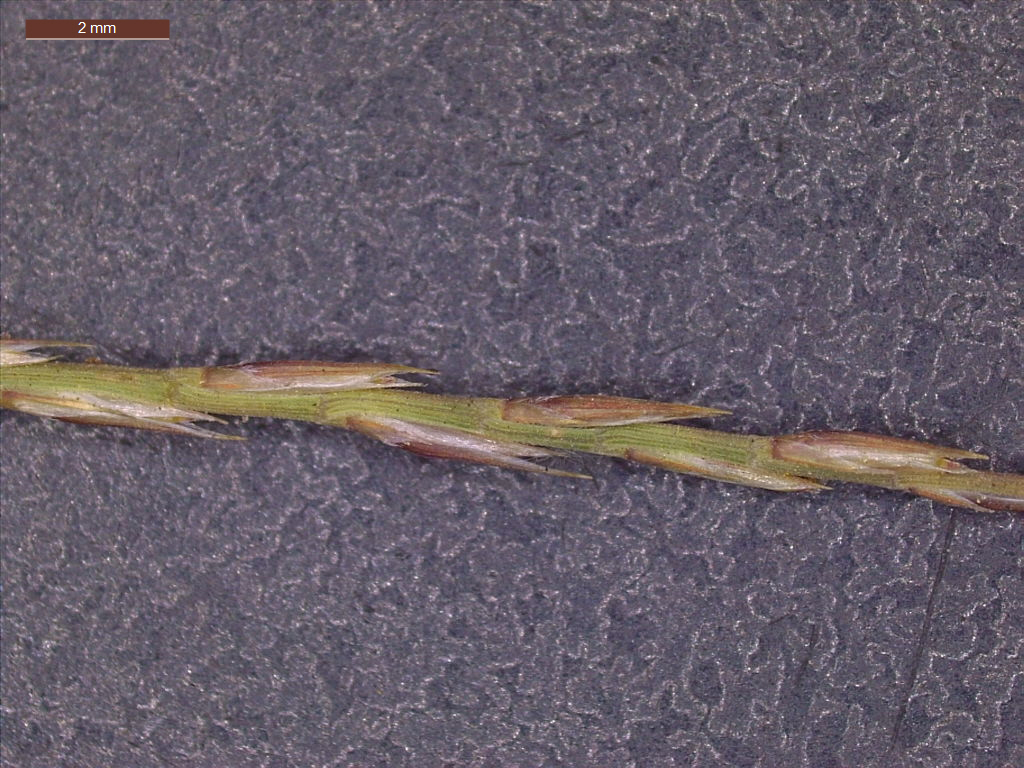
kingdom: Plantae
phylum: Tracheophyta
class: Liliopsida
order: Poales
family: Poaceae
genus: Muhlenbergia
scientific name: Muhlenbergia paniculata
